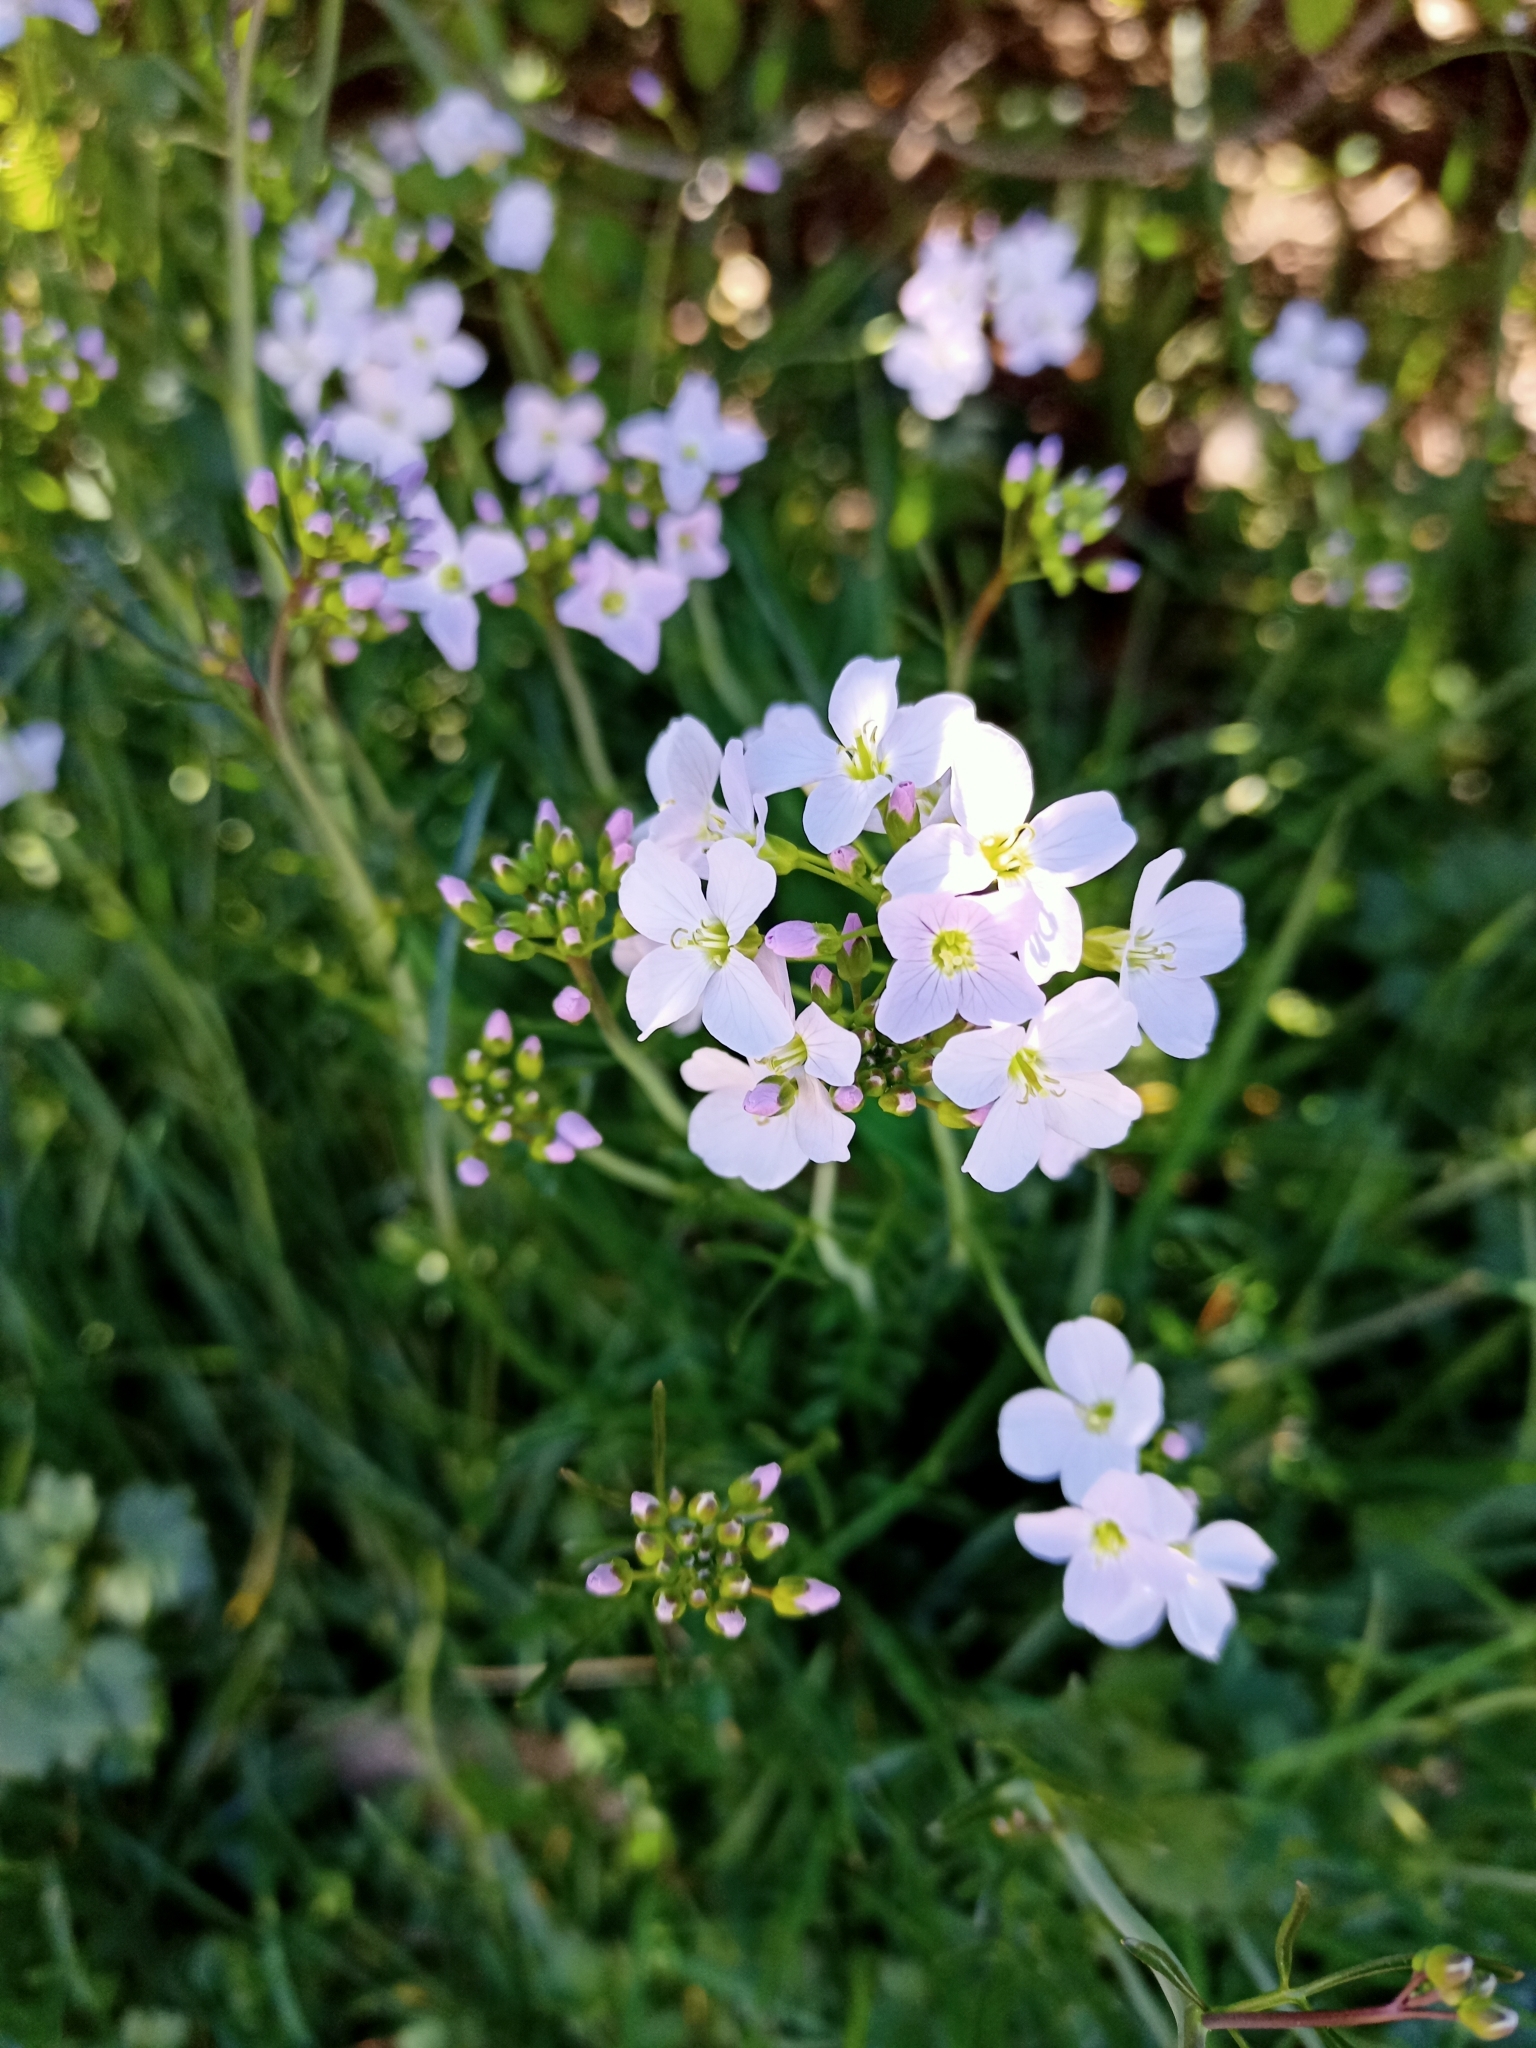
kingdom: Plantae
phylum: Tracheophyta
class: Magnoliopsida
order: Brassicales
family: Brassicaceae
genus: Cardamine
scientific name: Cardamine pratensis
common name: Cuckoo flower
